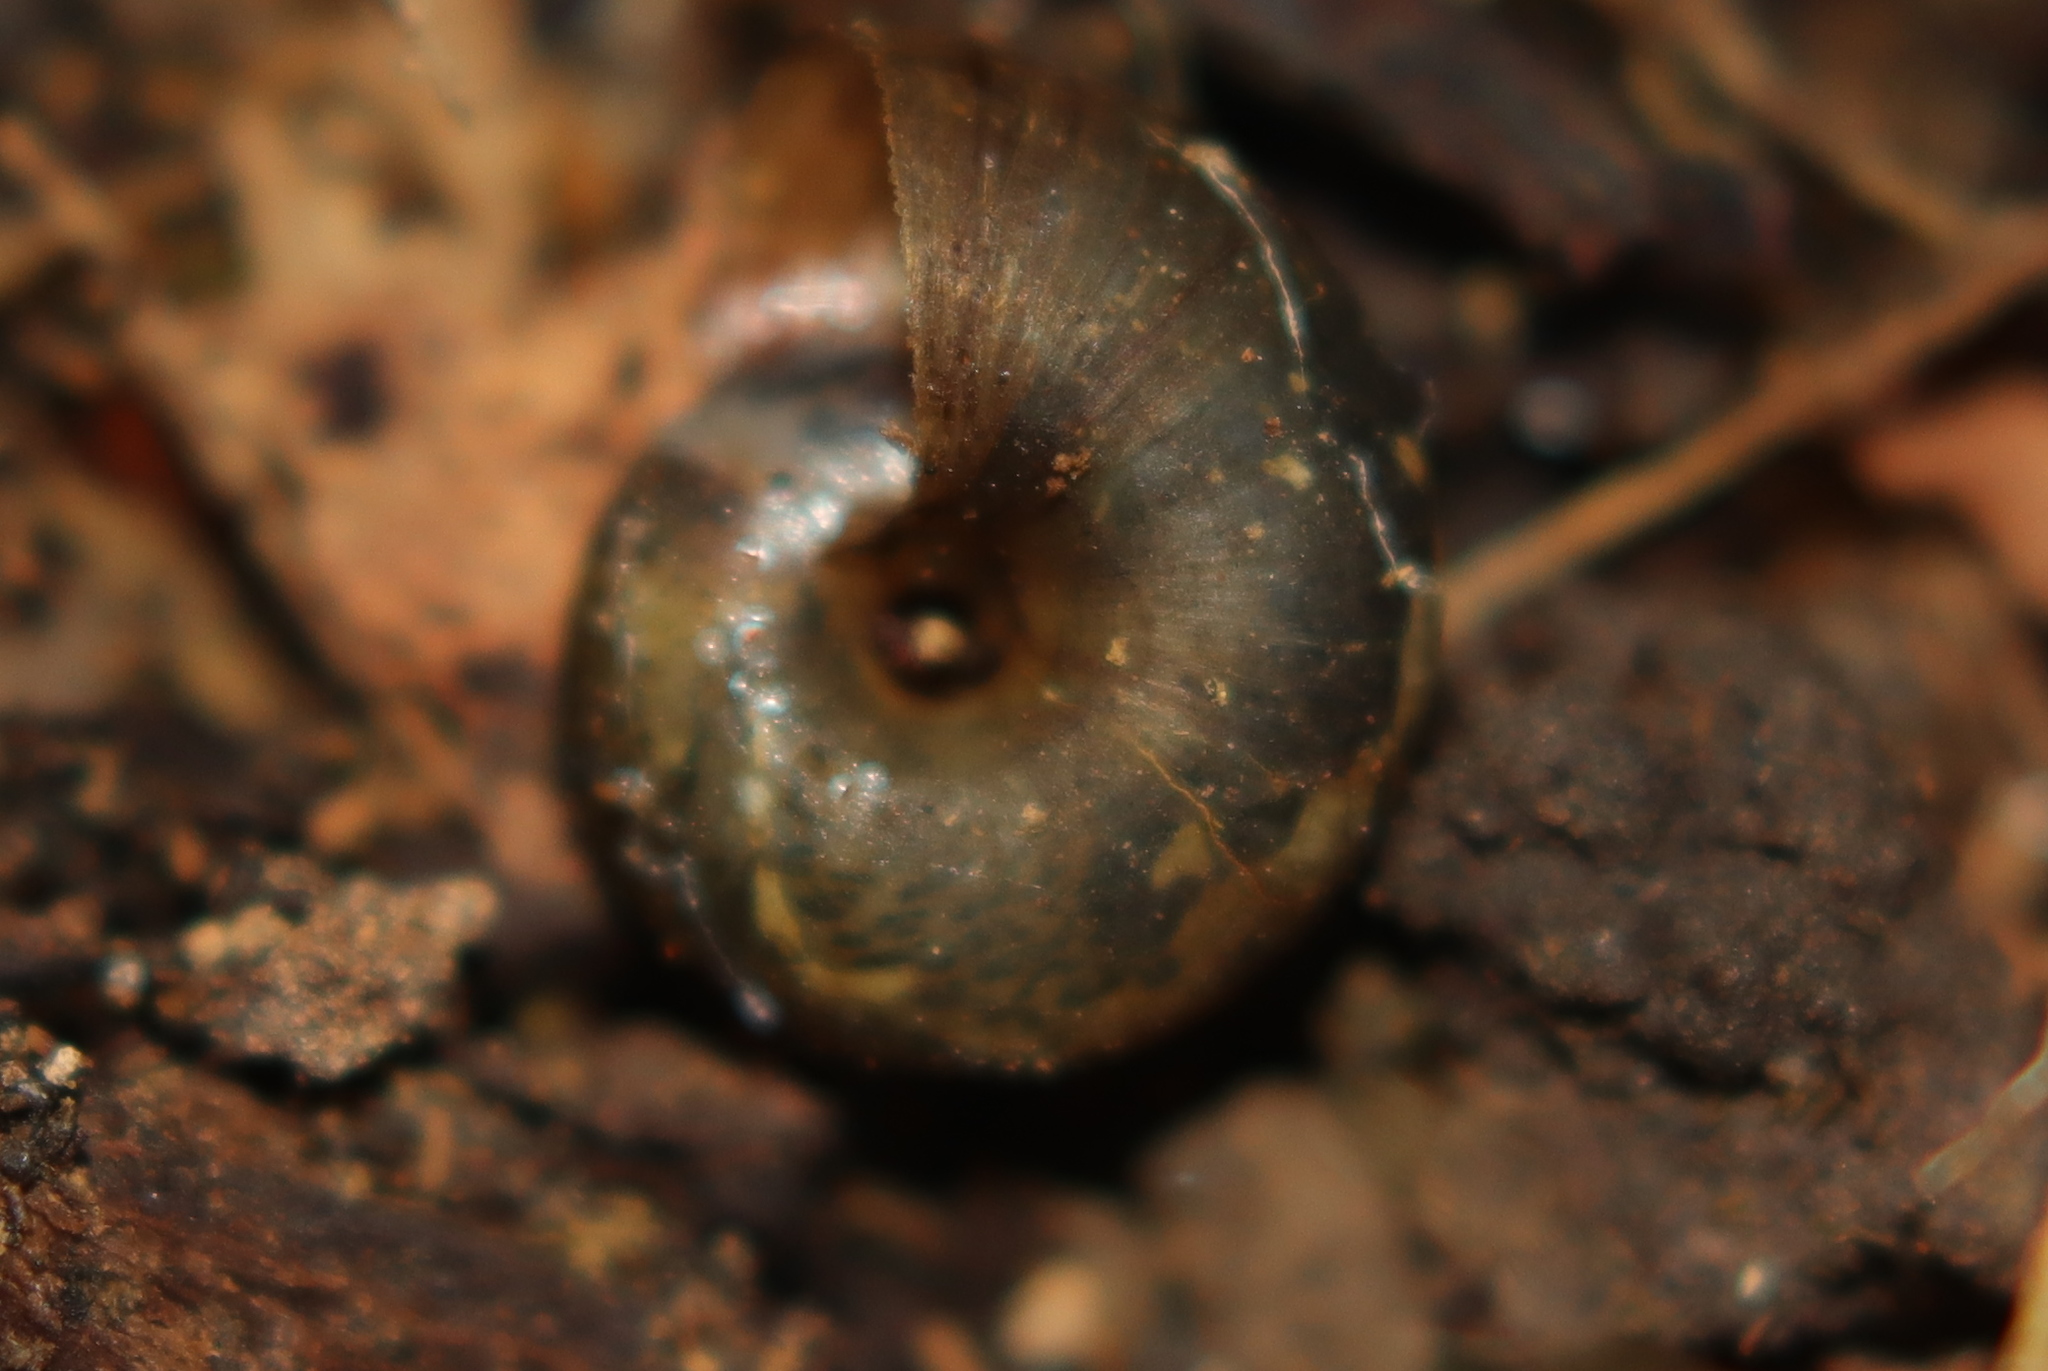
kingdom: Animalia
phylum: Mollusca
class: Gastropoda
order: Stylommatophora
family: Charopidae
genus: Thalassohelix
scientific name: Thalassohelix igniflua
